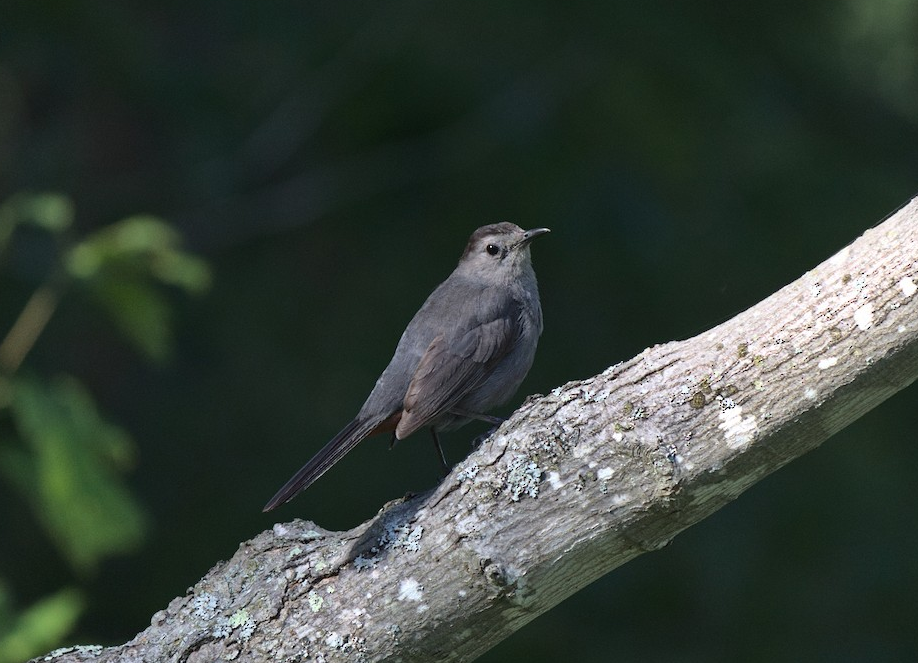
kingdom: Animalia
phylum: Chordata
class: Aves
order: Passeriformes
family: Mimidae
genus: Dumetella
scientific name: Dumetella carolinensis
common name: Gray catbird
